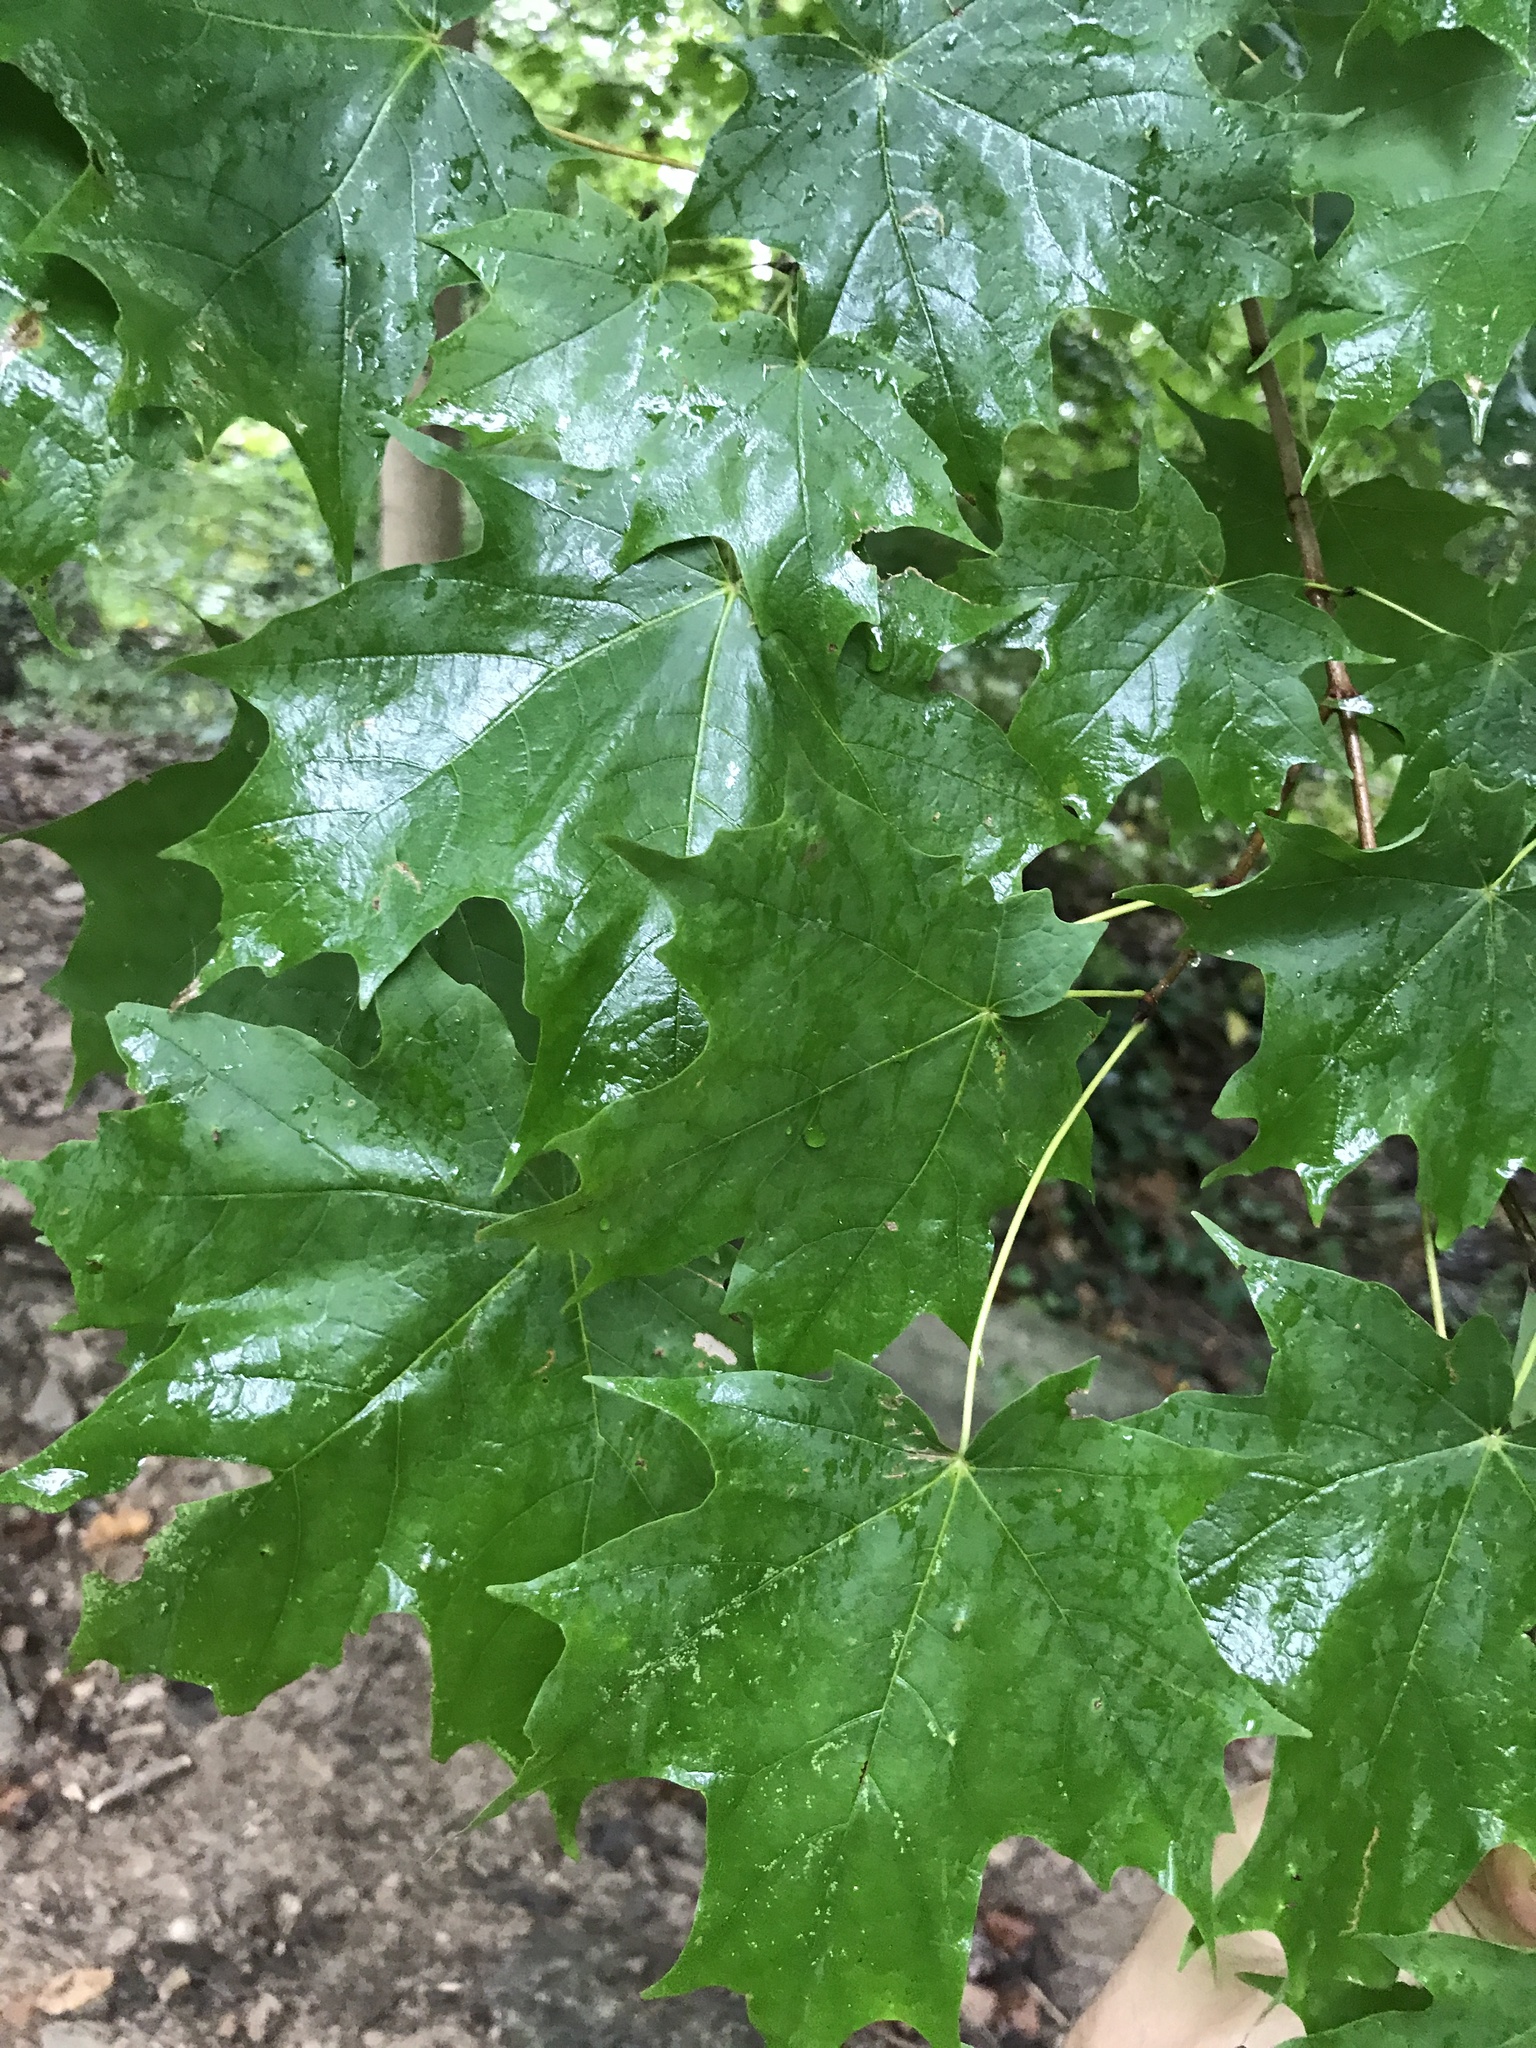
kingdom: Plantae
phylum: Tracheophyta
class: Magnoliopsida
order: Sapindales
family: Sapindaceae
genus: Acer
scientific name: Acer saccharum
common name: Sugar maple
